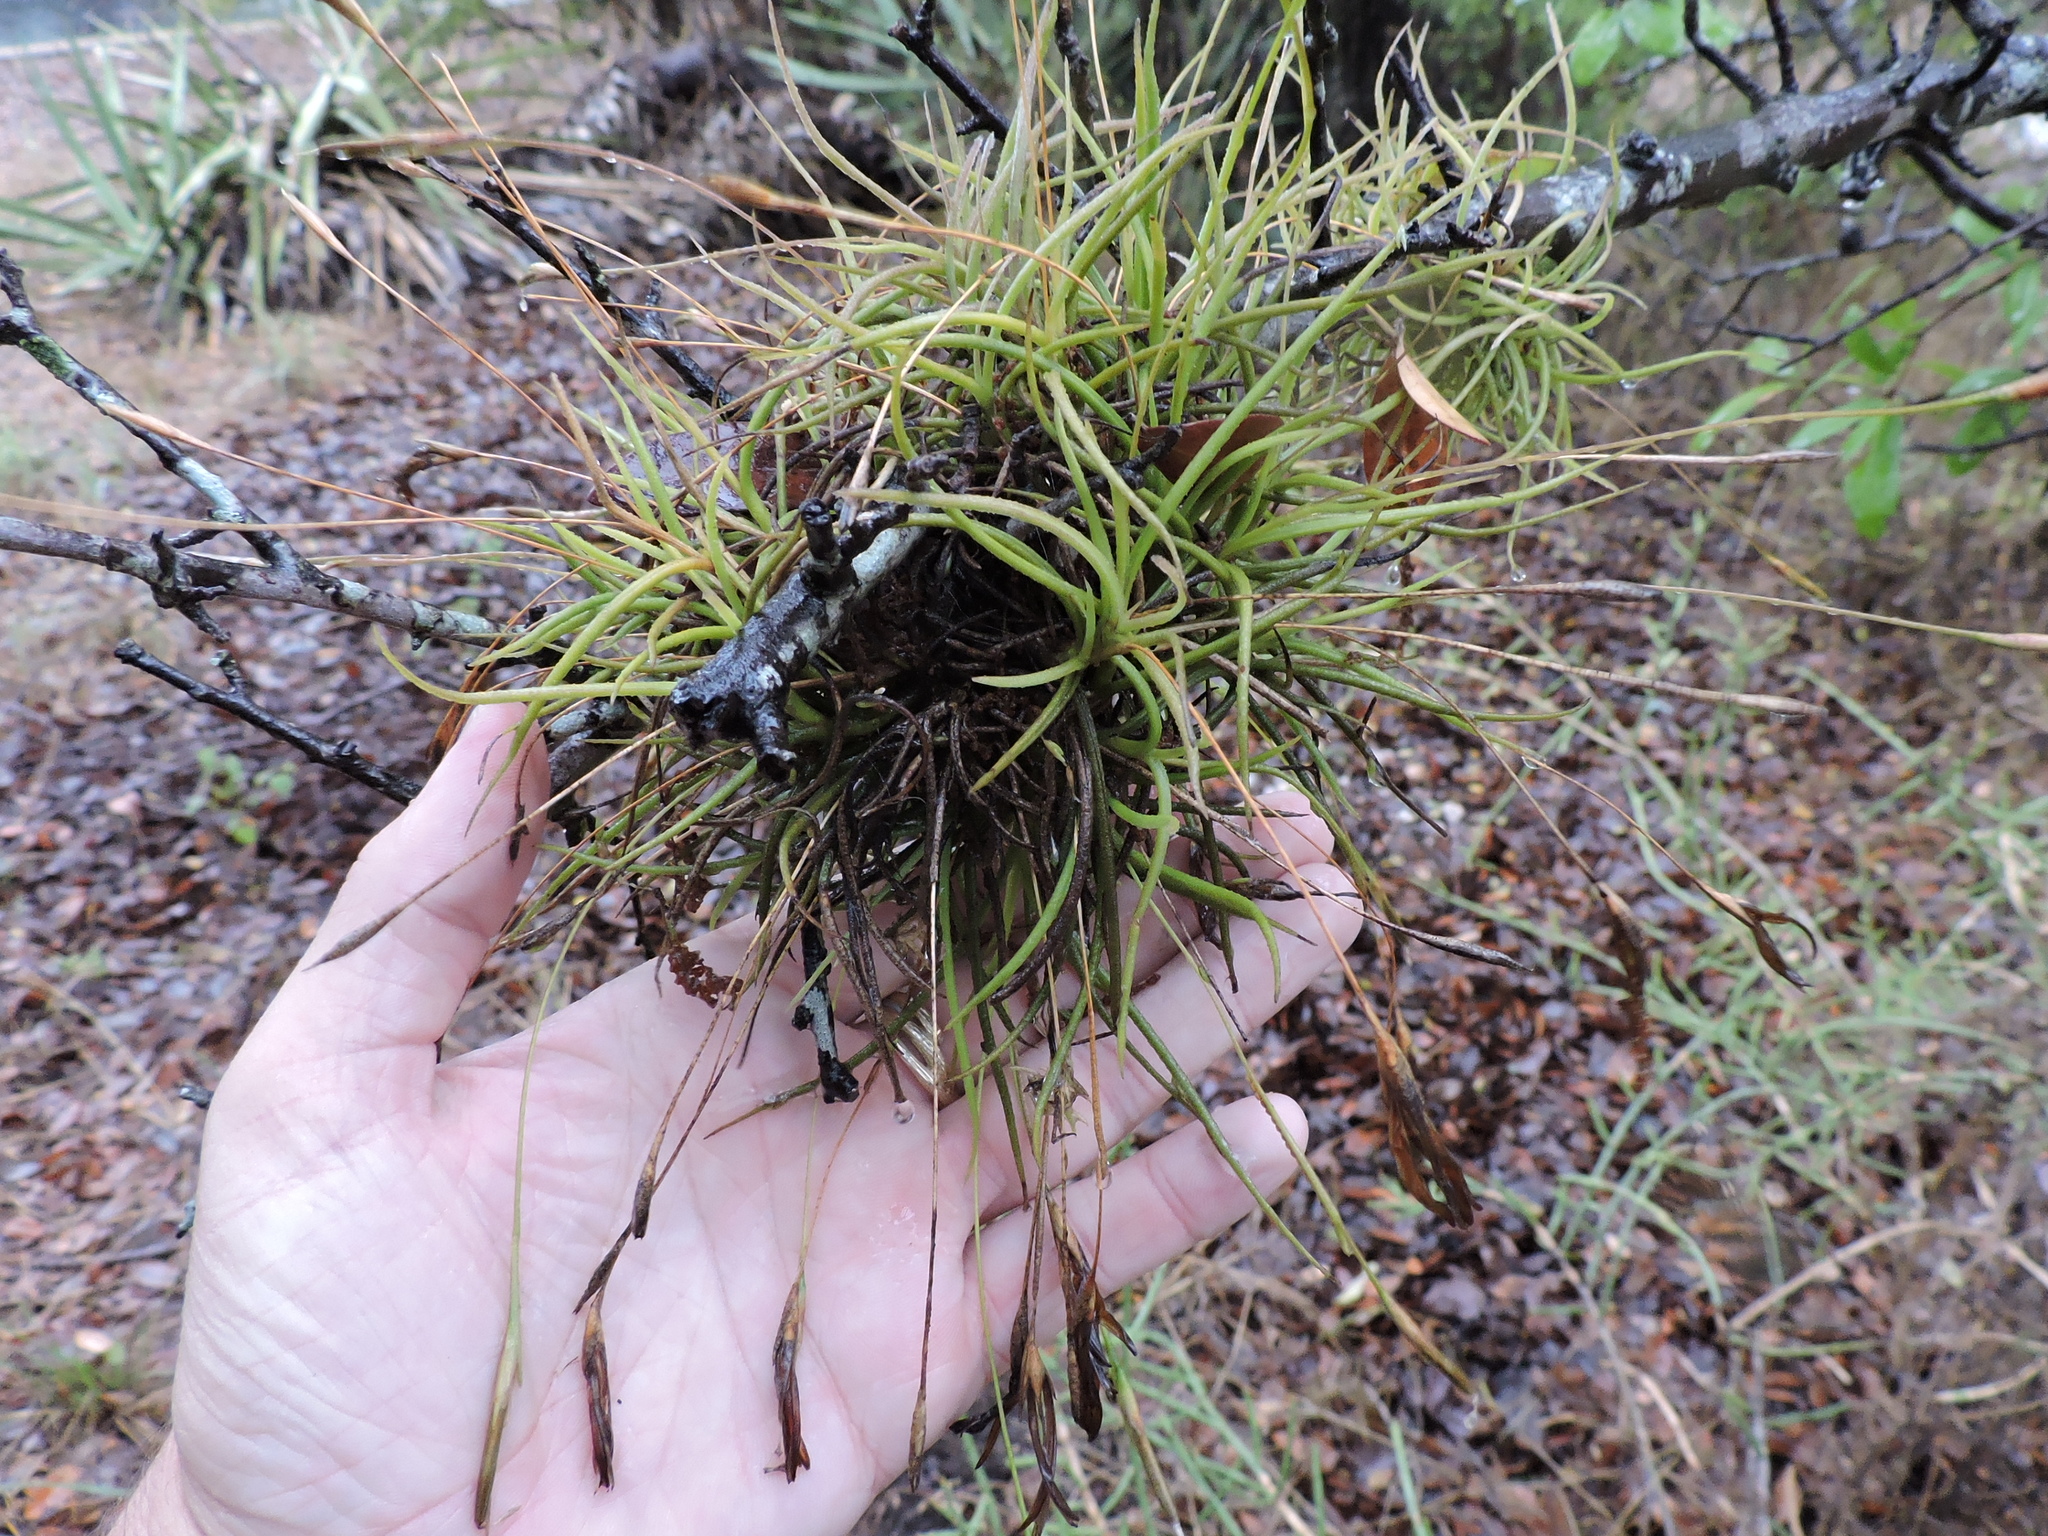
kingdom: Plantae
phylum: Tracheophyta
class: Liliopsida
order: Poales
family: Bromeliaceae
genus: Tillandsia
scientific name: Tillandsia recurvata
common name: Small ballmoss
